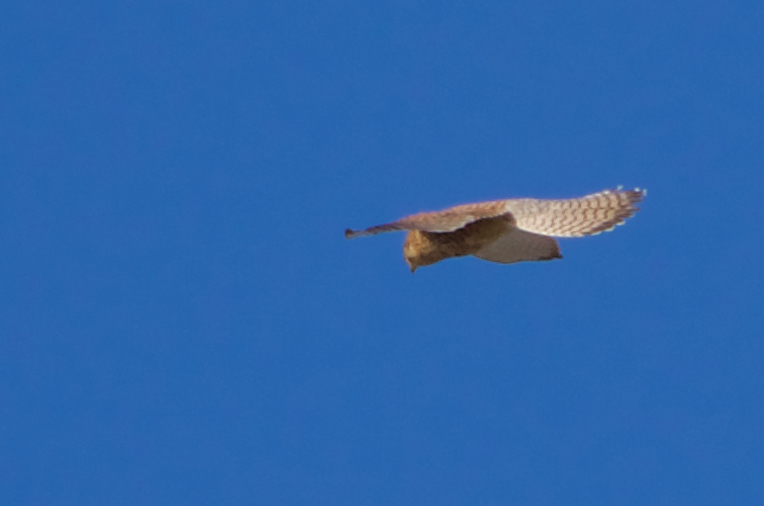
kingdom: Animalia
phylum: Chordata
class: Aves
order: Falconiformes
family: Falconidae
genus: Falco
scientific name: Falco tinnunculus
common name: Common kestrel
